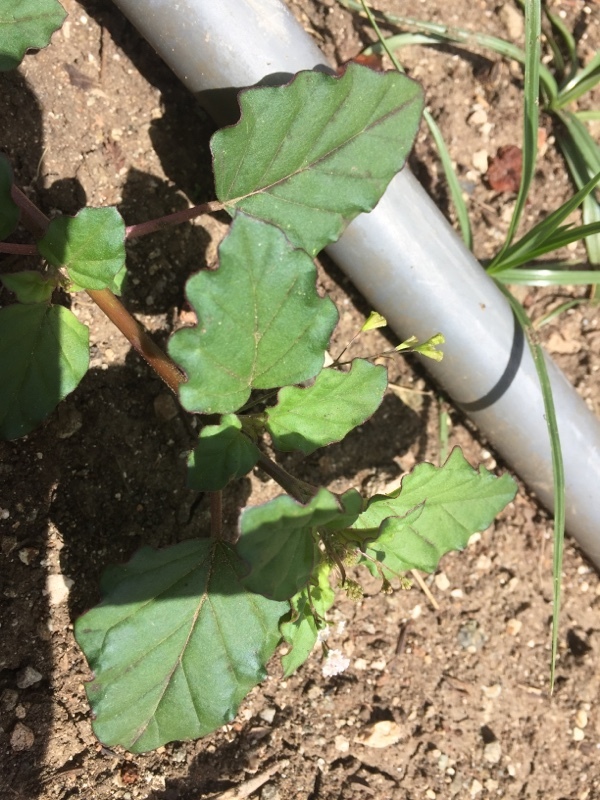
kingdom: Plantae
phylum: Tracheophyta
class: Magnoliopsida
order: Caryophyllales
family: Nyctaginaceae
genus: Boerhavia
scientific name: Boerhavia erecta
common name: Erect spiderling
